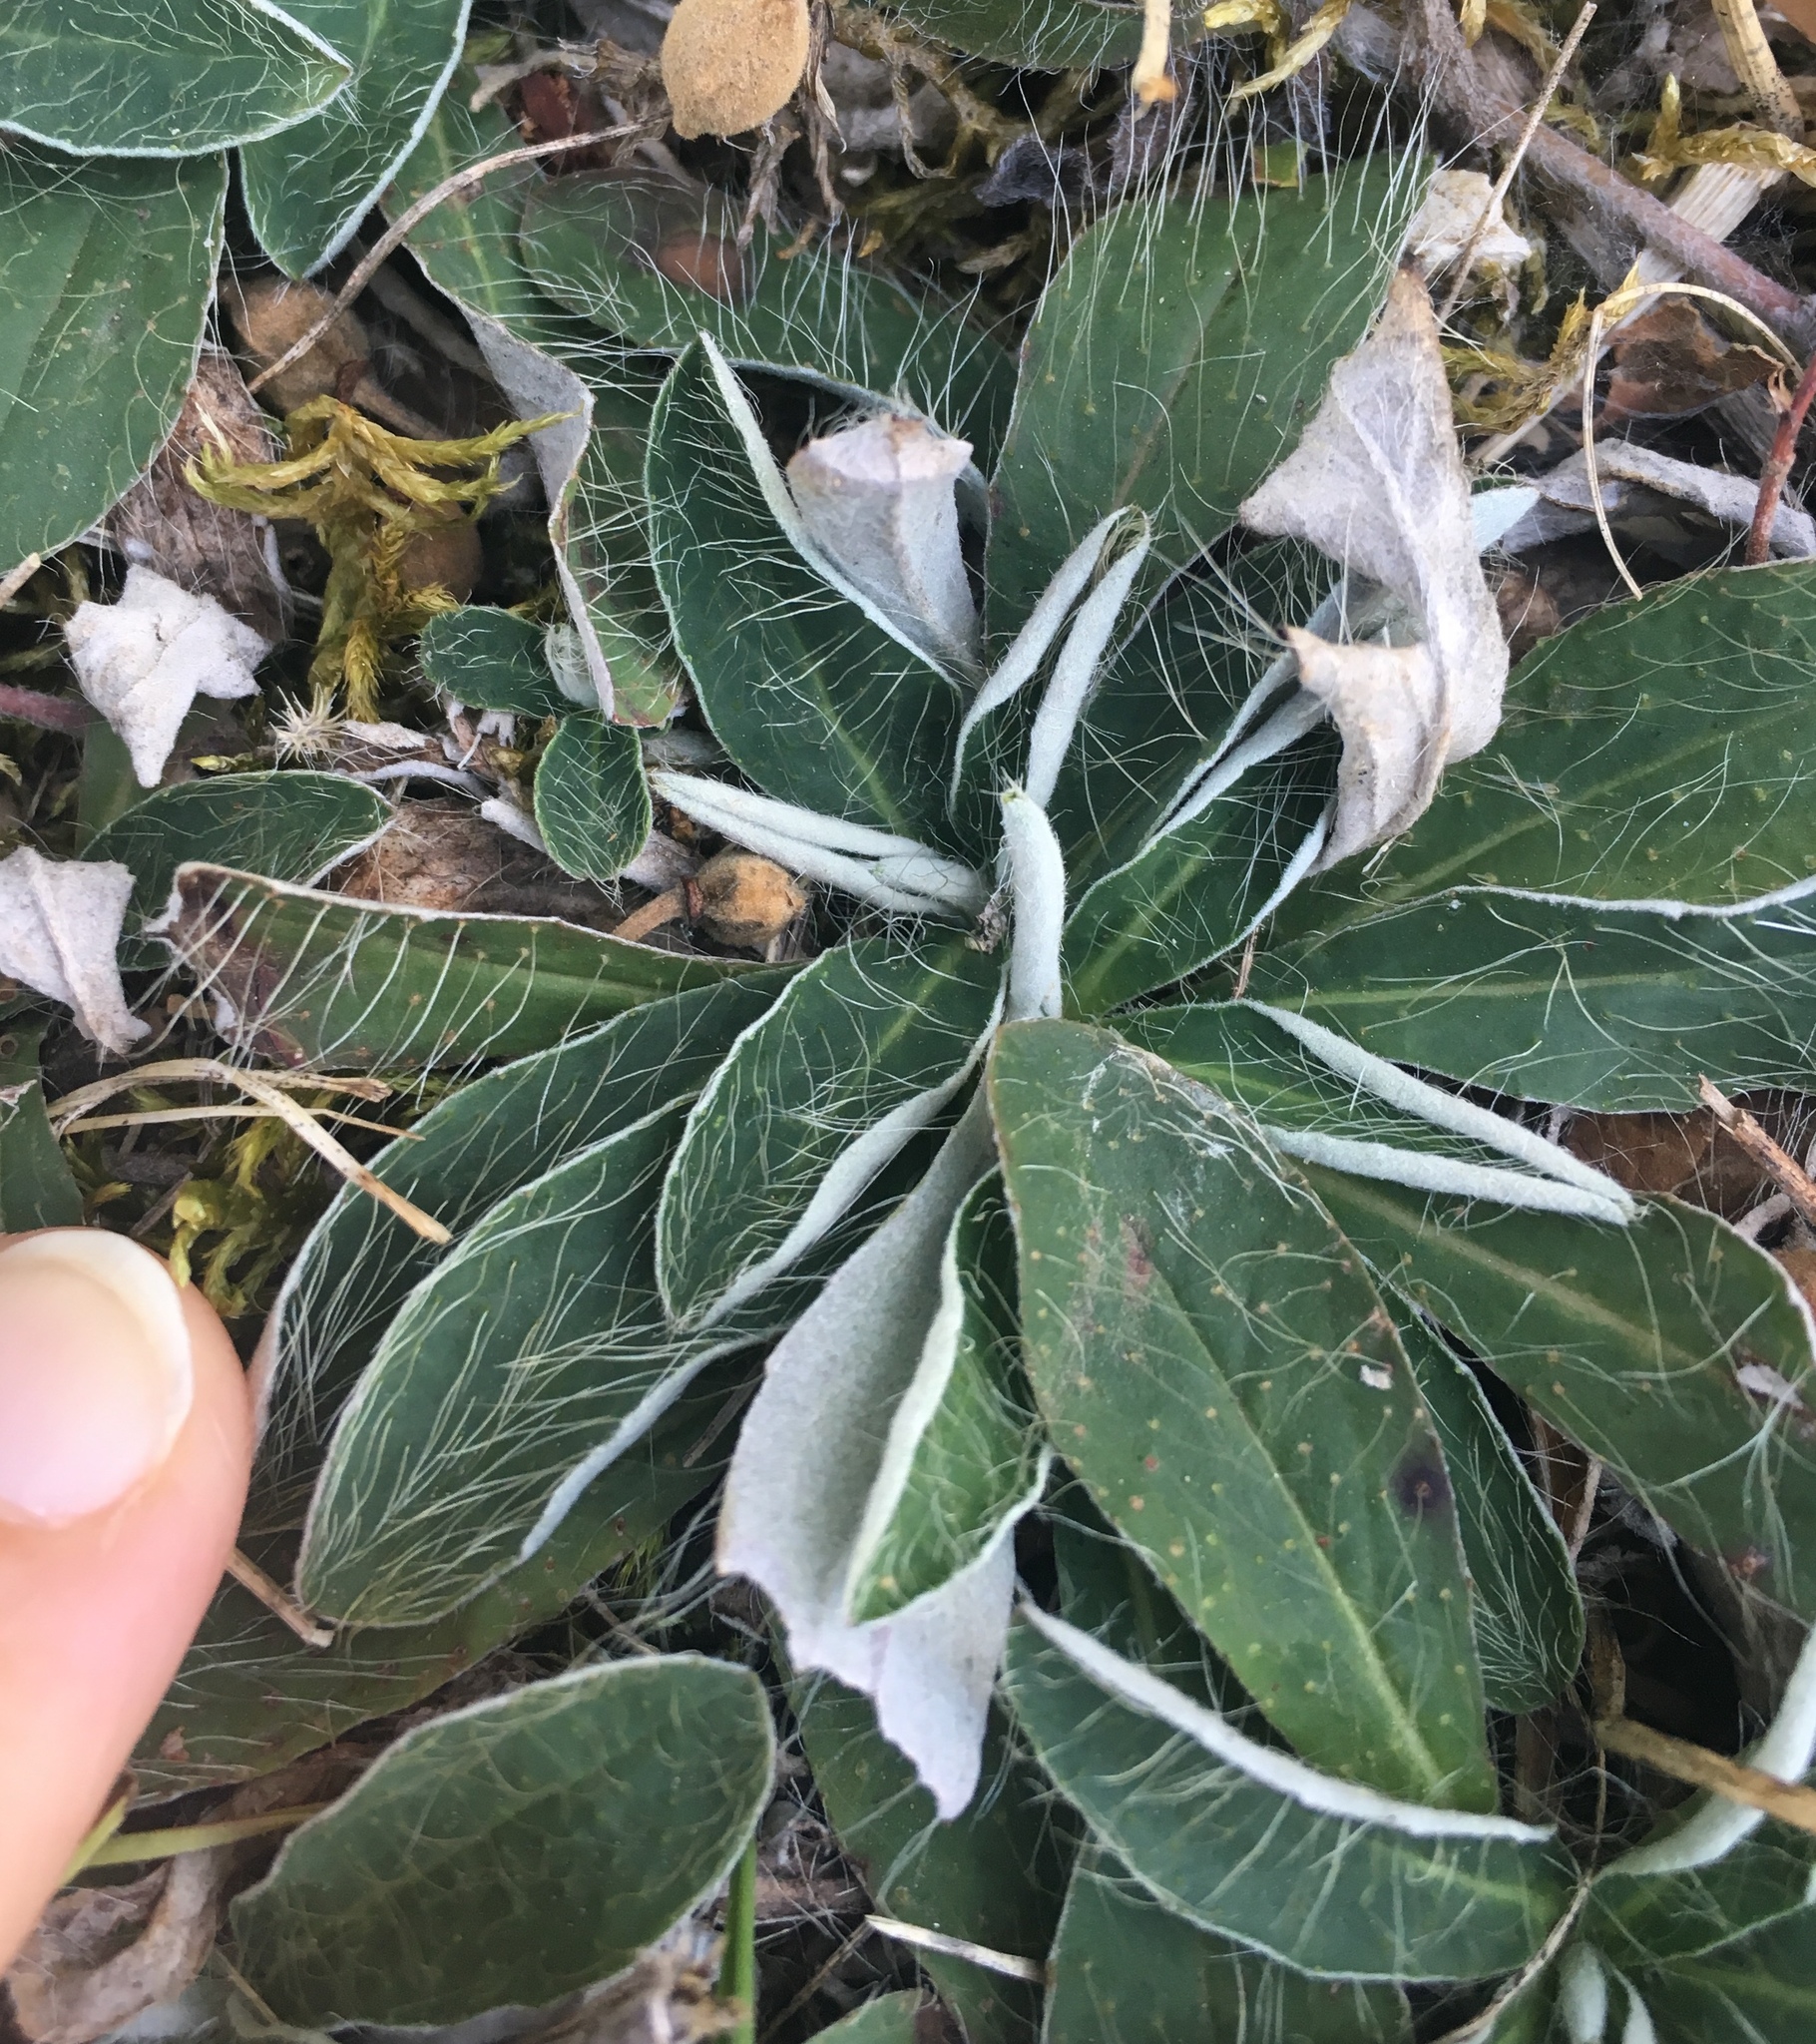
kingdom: Plantae
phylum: Tracheophyta
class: Magnoliopsida
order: Asterales
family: Asteraceae
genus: Pilosella
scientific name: Pilosella officinarum
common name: Mouse-ear hawkweed
